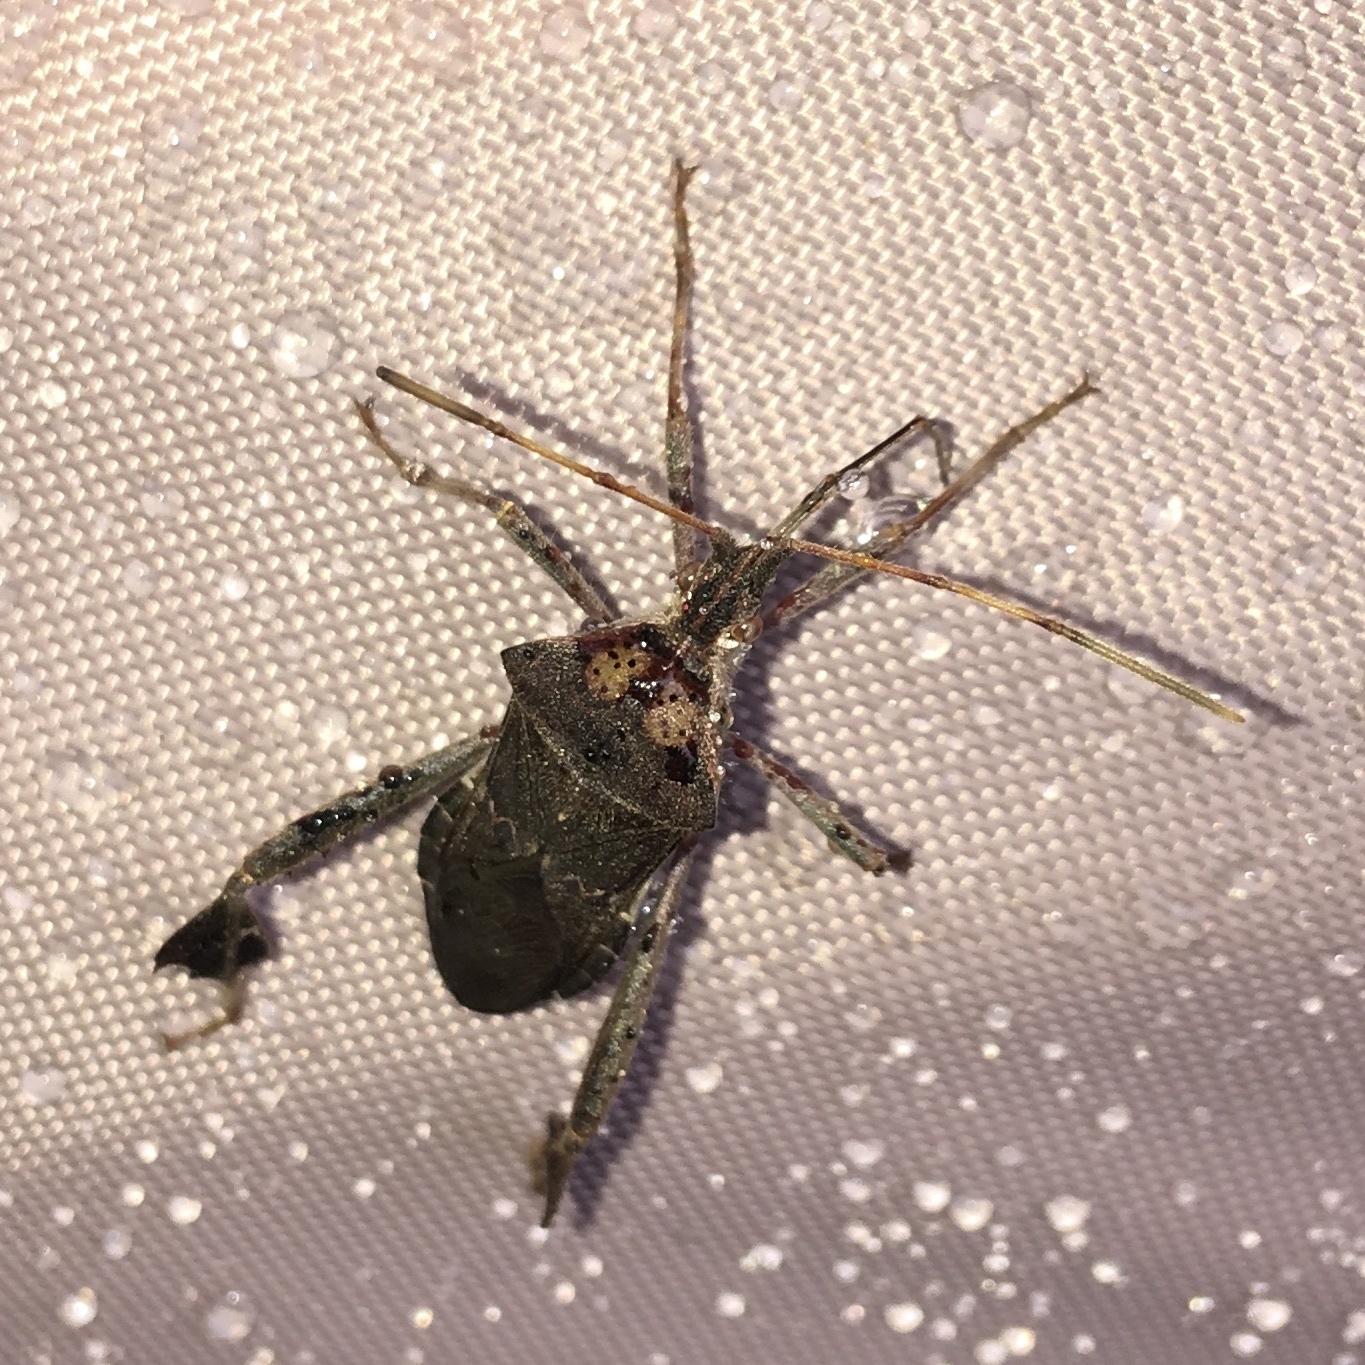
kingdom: Animalia
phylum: Arthropoda
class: Insecta
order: Hemiptera
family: Coreidae
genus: Leptoglossus
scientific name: Leptoglossus zonatus
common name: Large-legged bug
